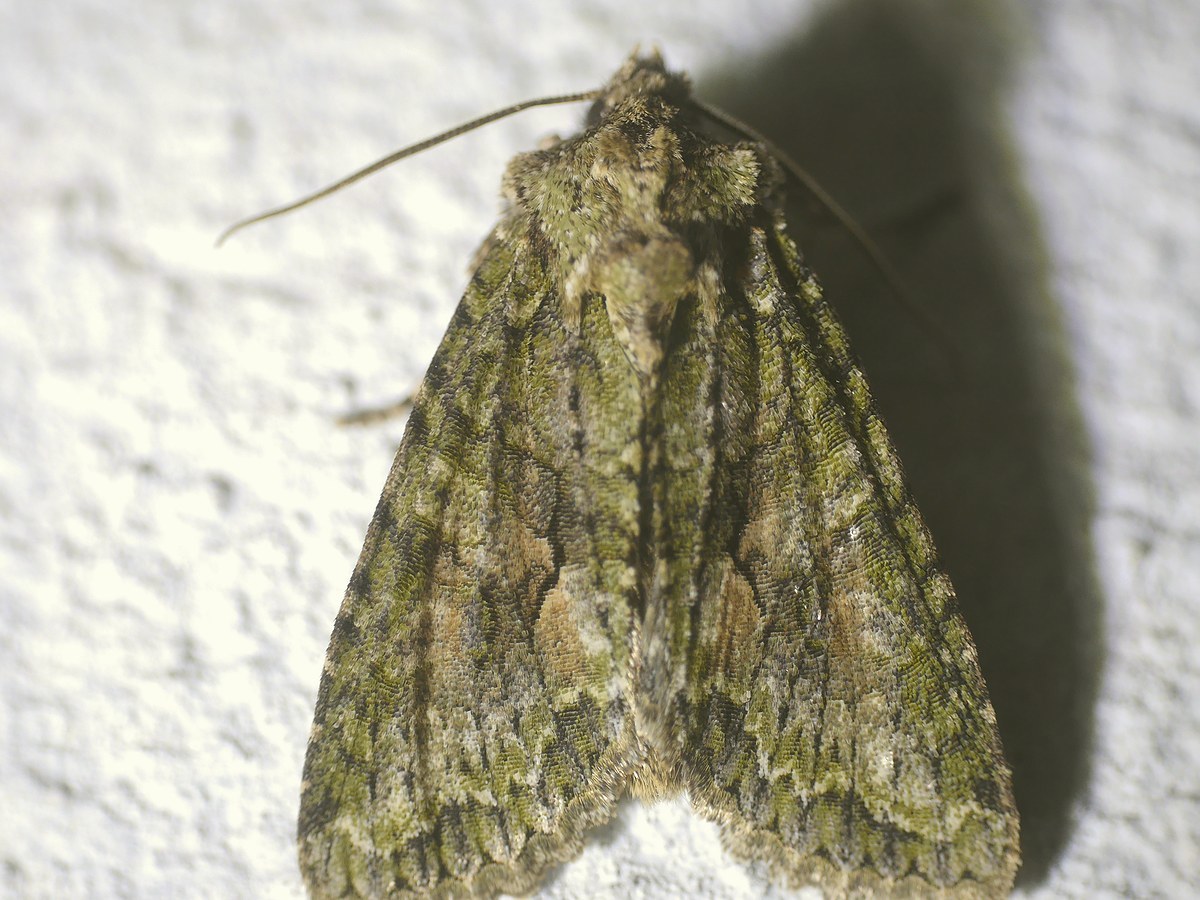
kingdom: Animalia
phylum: Arthropoda
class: Insecta
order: Lepidoptera
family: Noctuidae
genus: Dryobotodes
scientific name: Dryobotodes eremita
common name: Brindled green
